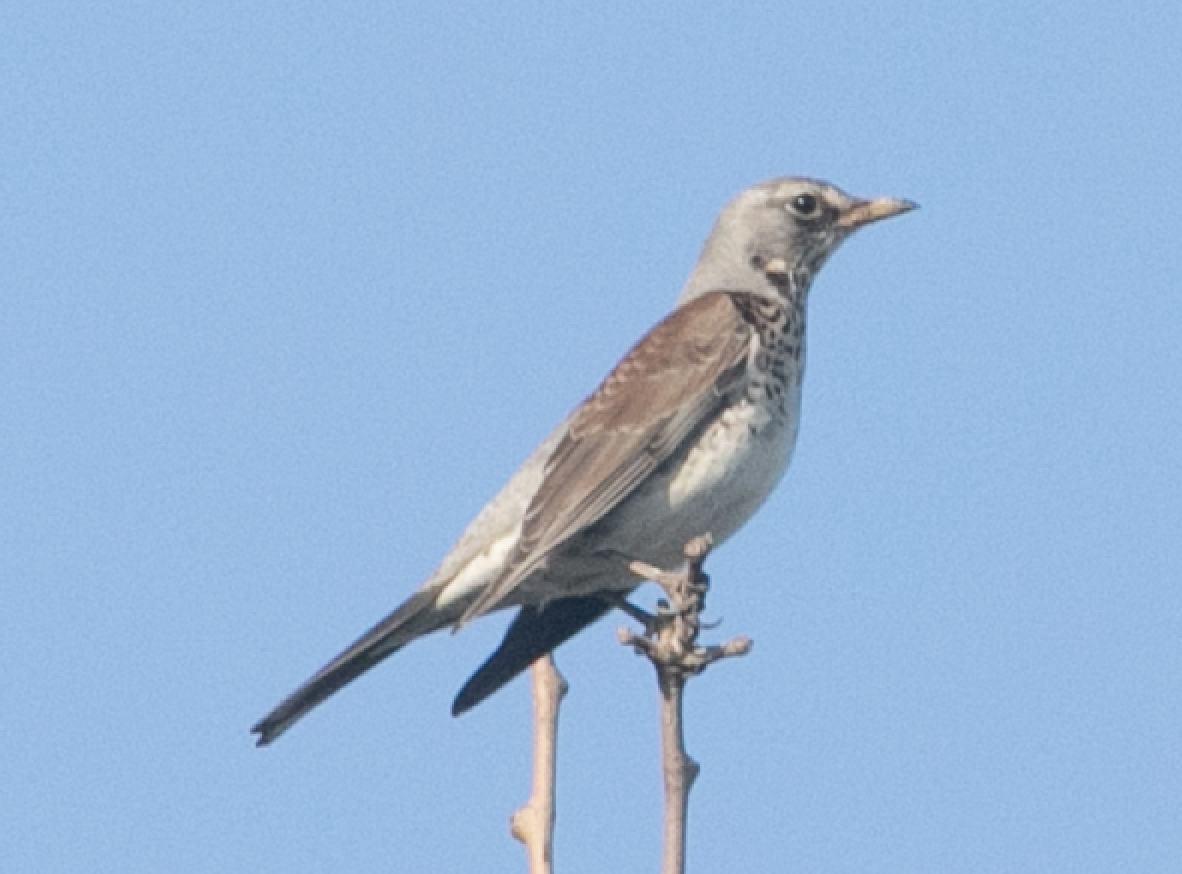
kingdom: Animalia
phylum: Chordata
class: Aves
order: Passeriformes
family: Turdidae
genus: Turdus
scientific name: Turdus pilaris
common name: Fieldfare
